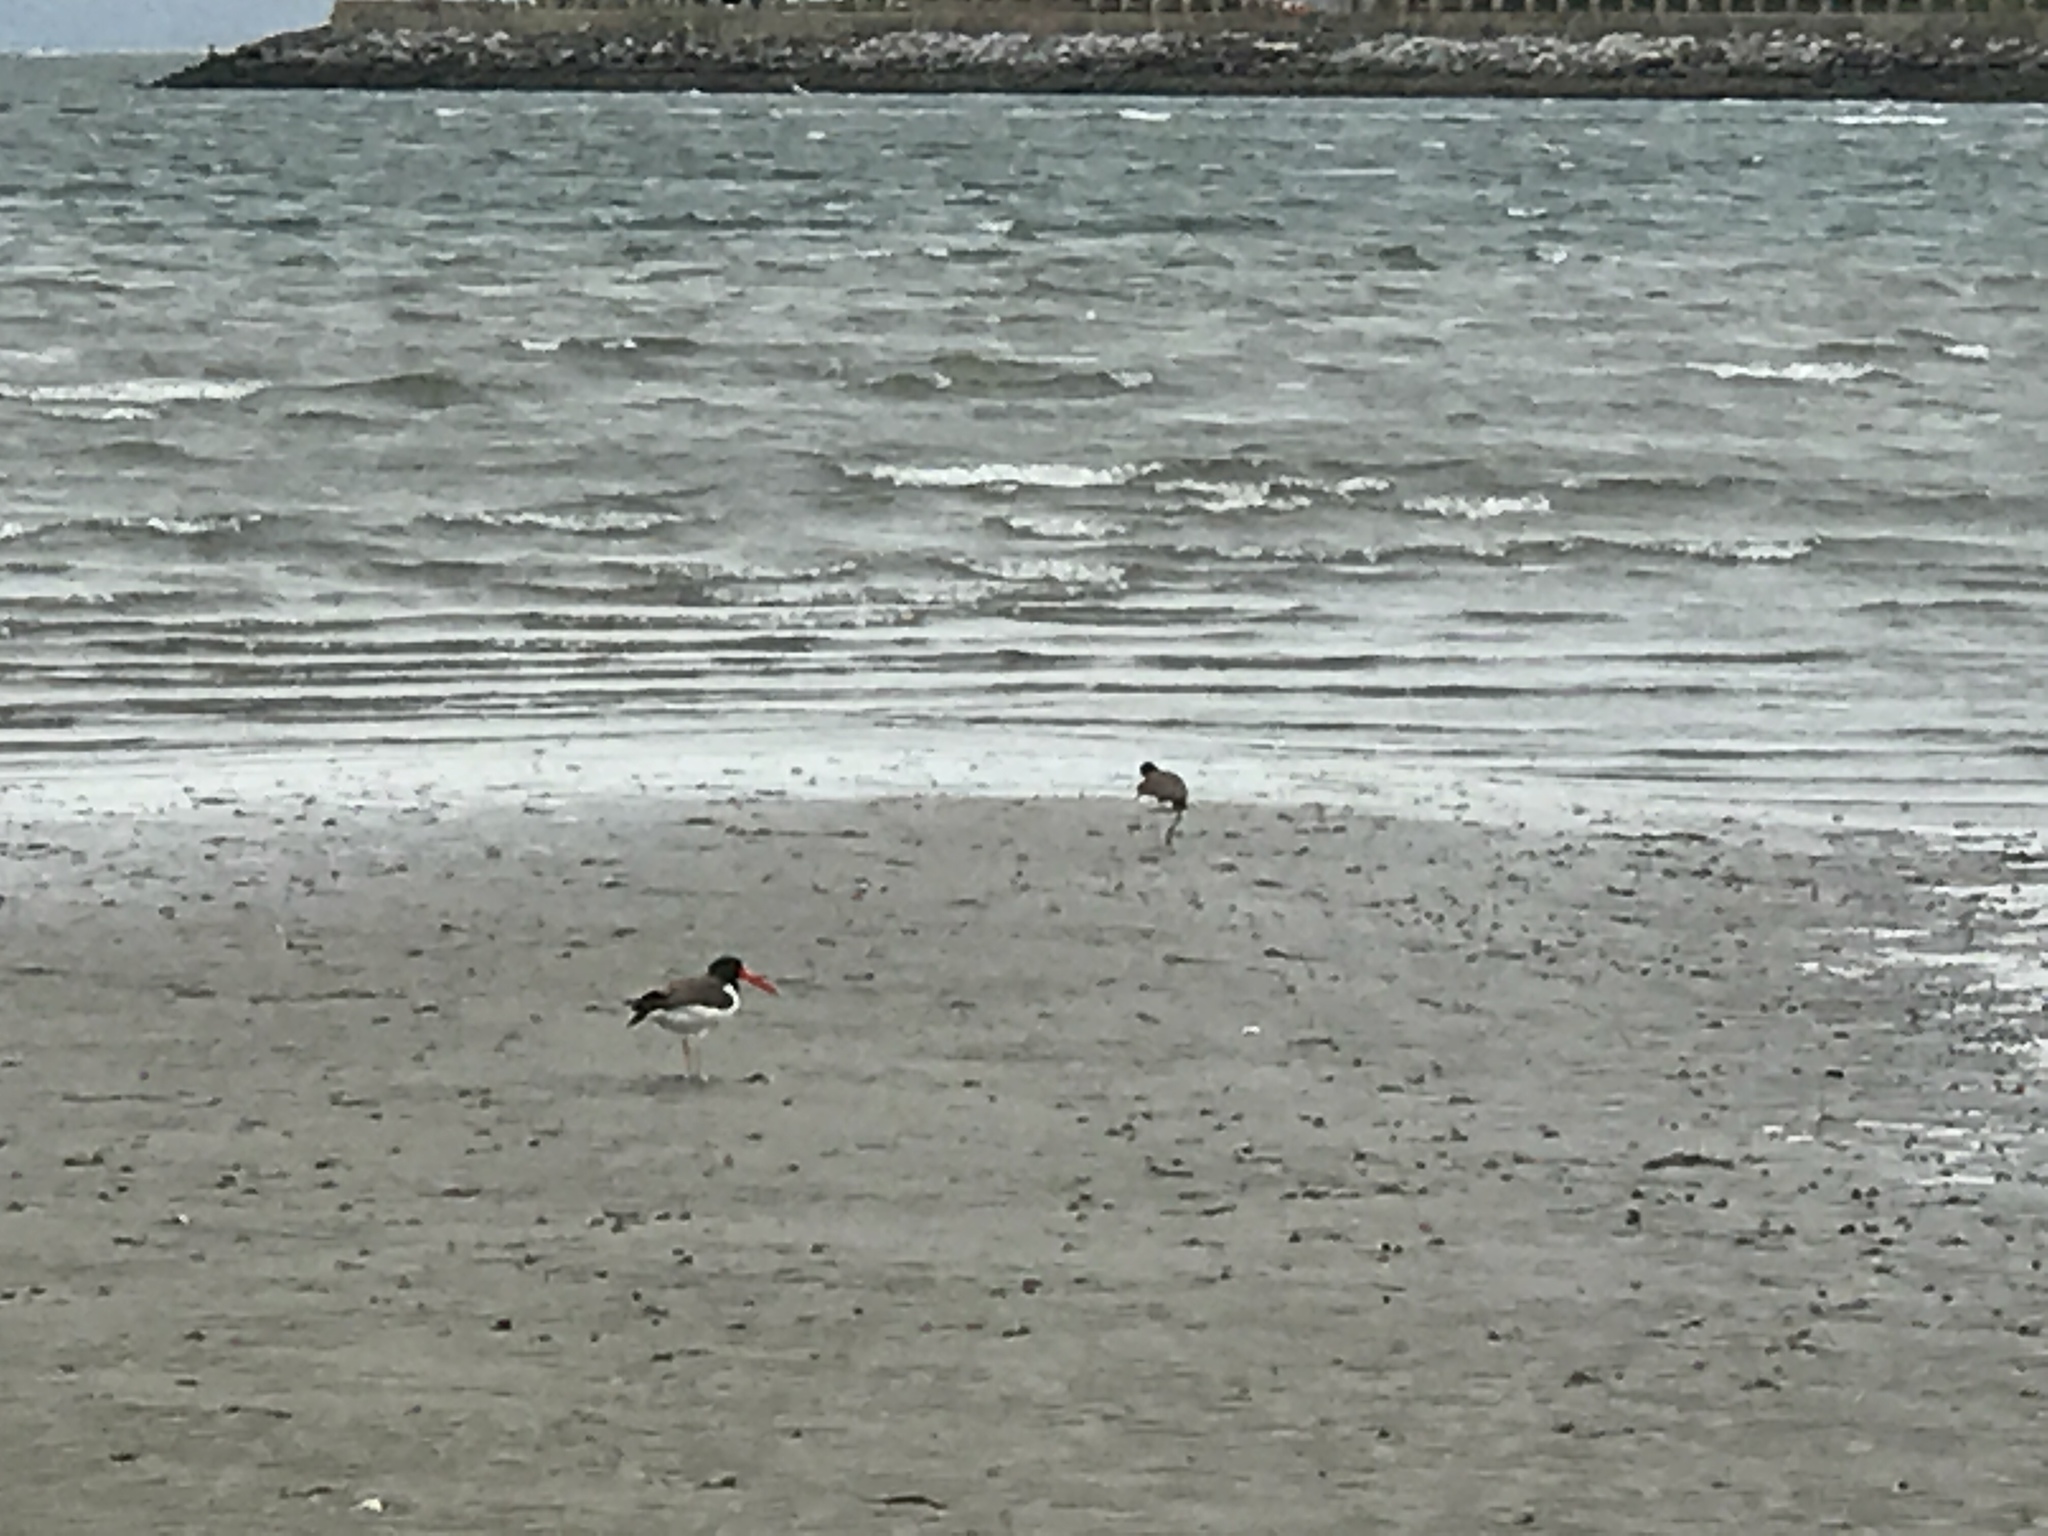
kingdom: Animalia
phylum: Chordata
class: Aves
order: Charadriiformes
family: Haematopodidae
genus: Haematopus
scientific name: Haematopus palliatus
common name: American oystercatcher
